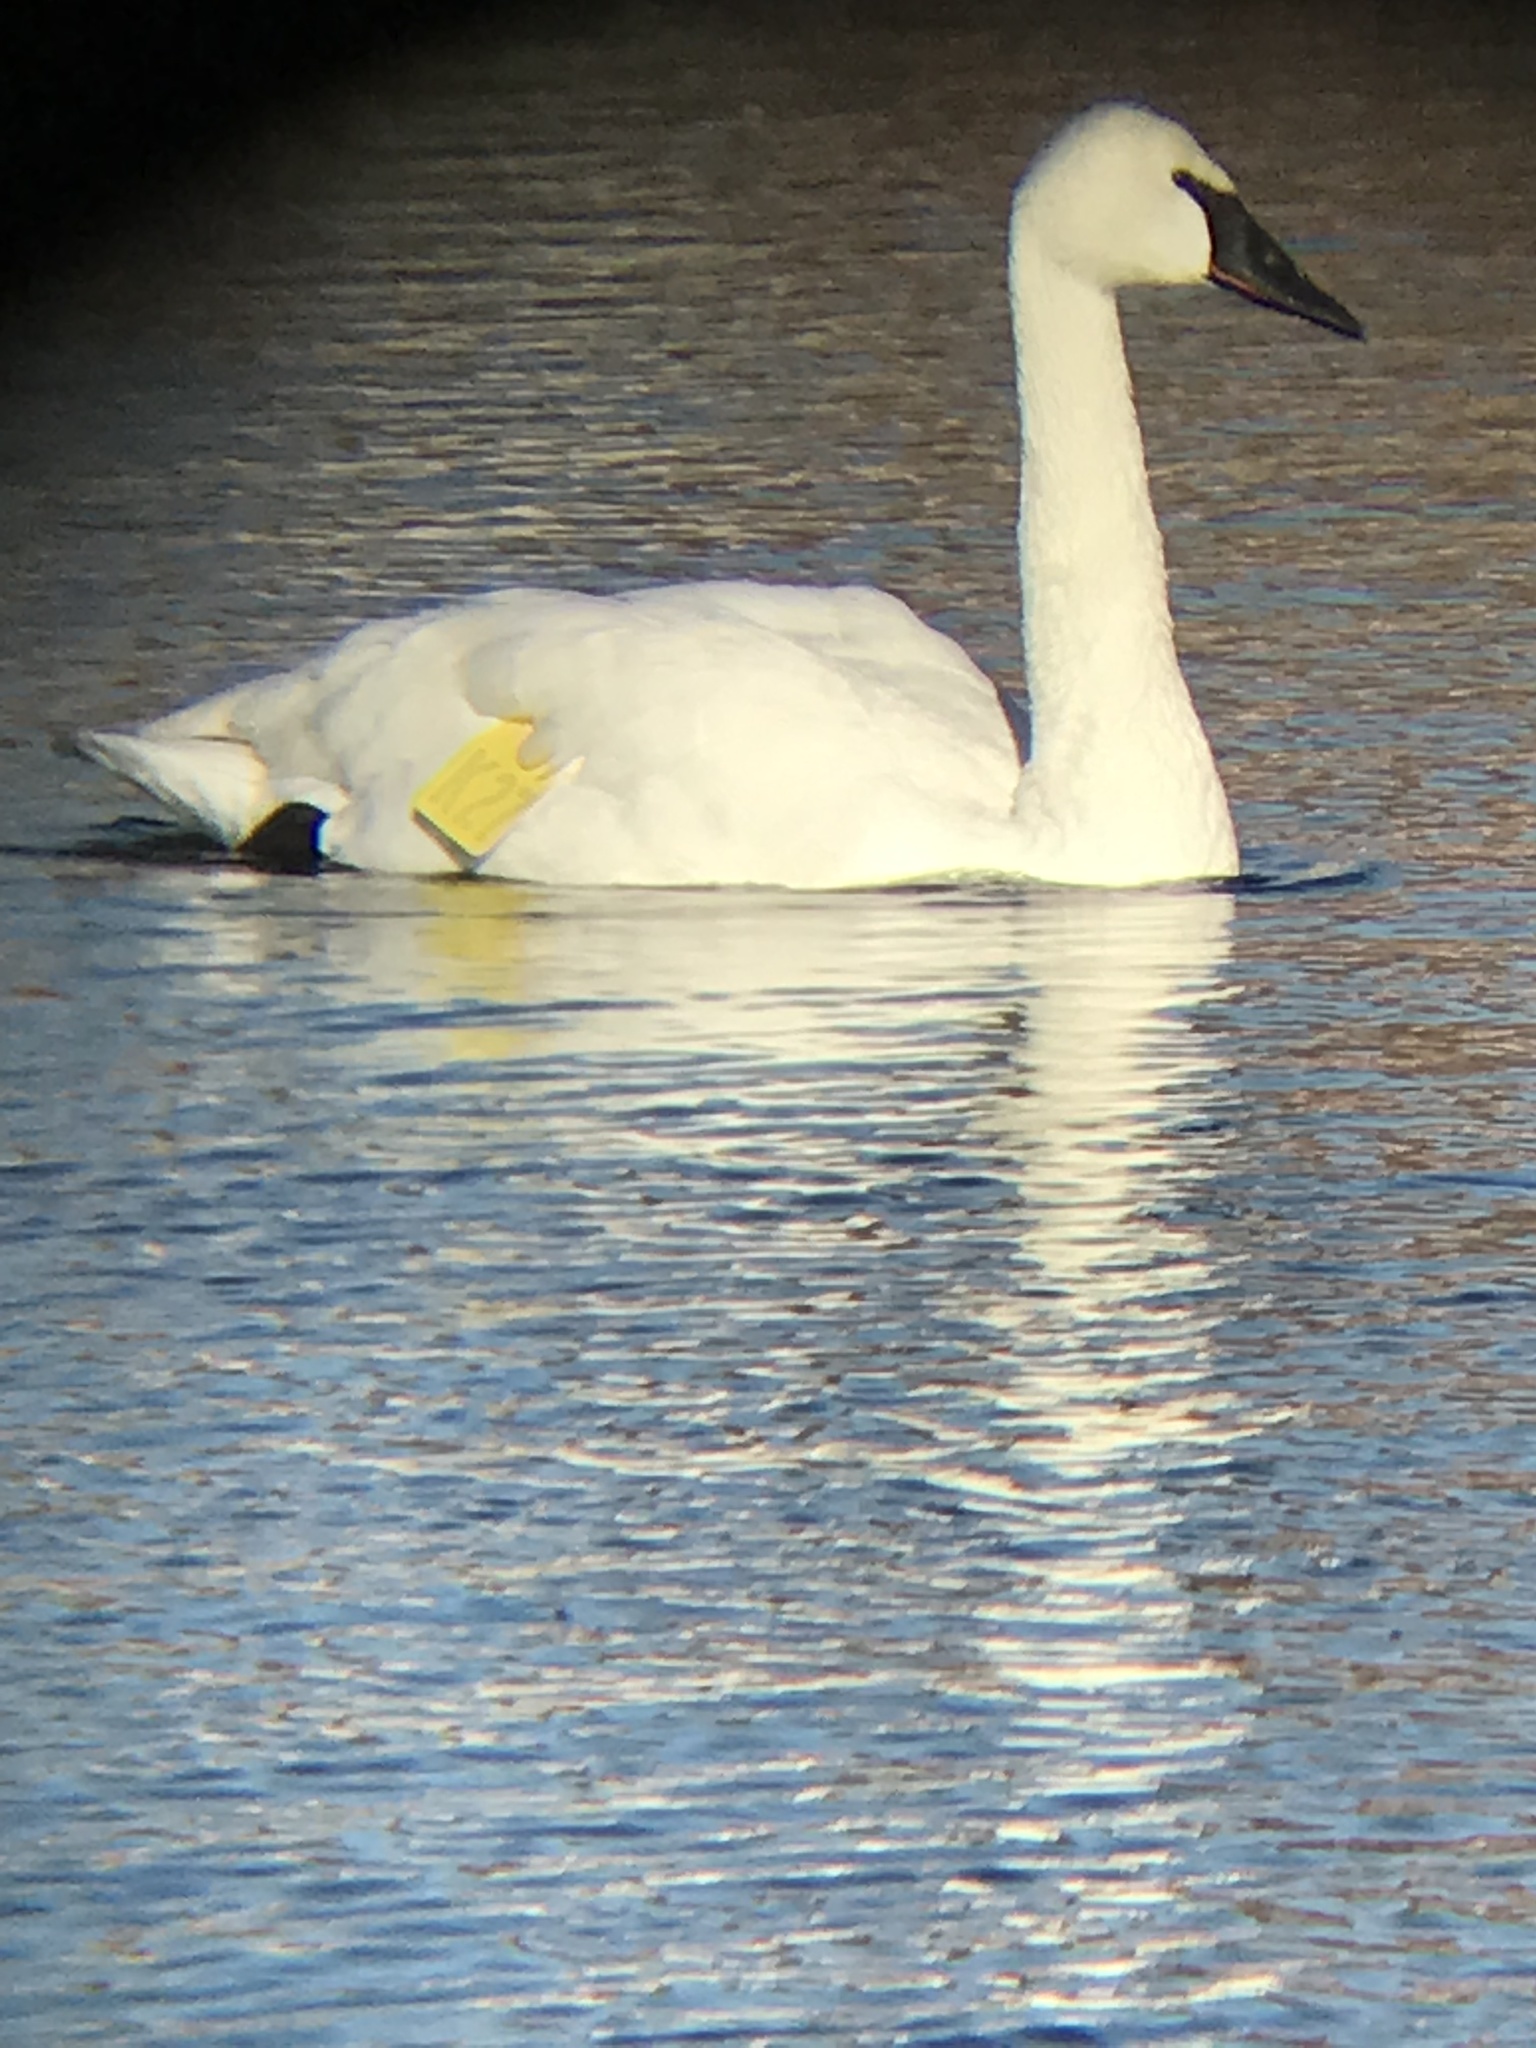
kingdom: Animalia
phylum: Chordata
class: Aves
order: Anseriformes
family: Anatidae
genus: Cygnus
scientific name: Cygnus buccinator
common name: Trumpeter swan
